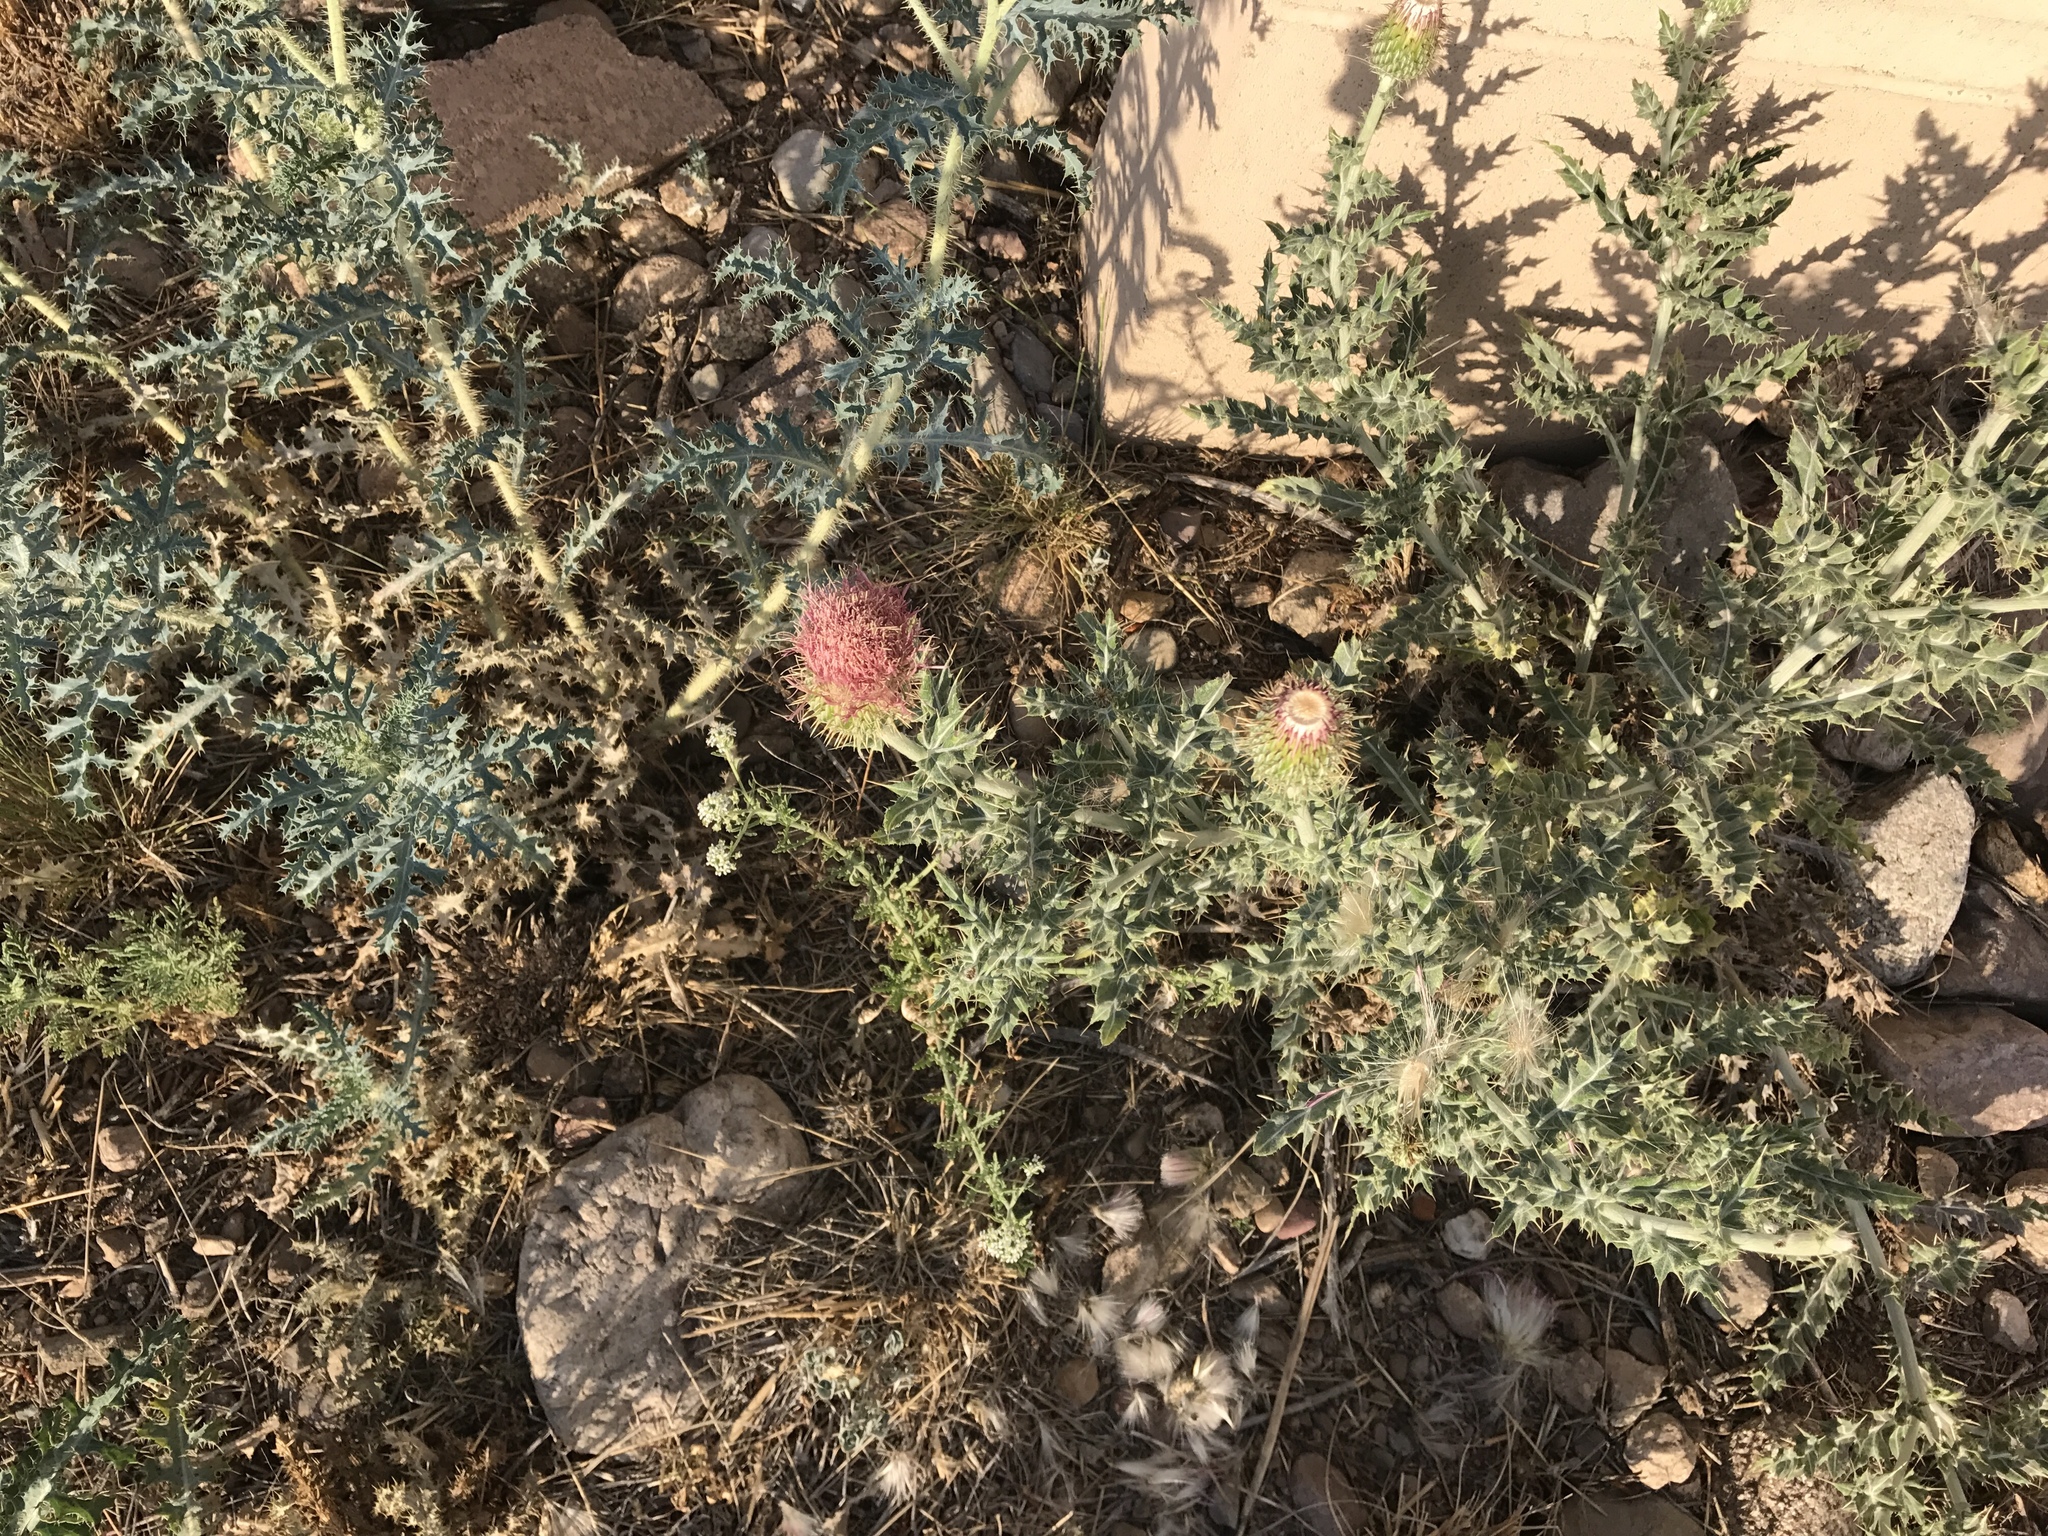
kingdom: Plantae
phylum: Tracheophyta
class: Magnoliopsida
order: Asterales
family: Asteraceae
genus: Cirsium
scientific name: Cirsium ochrocentrum
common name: Yellow-spine thistle
